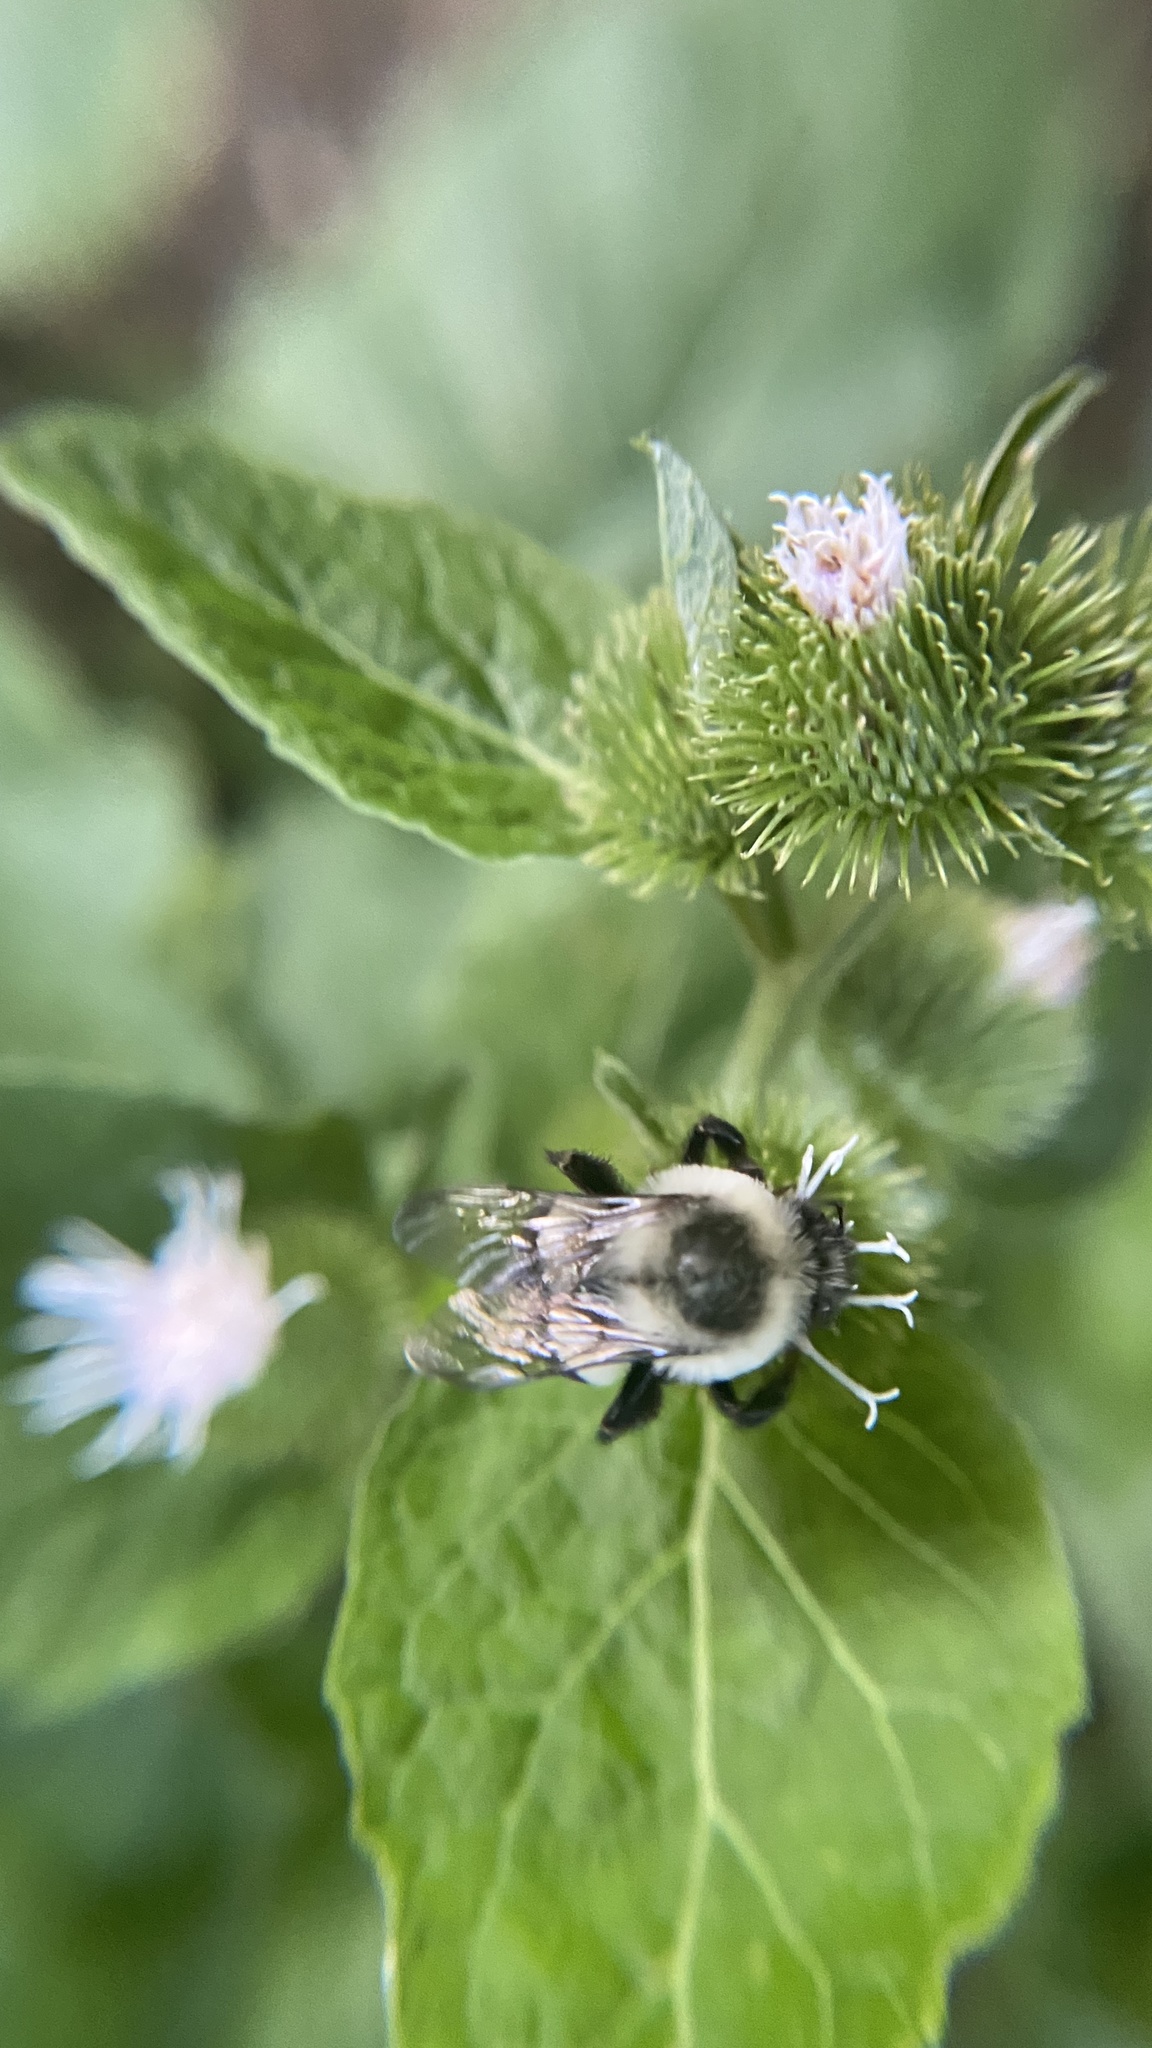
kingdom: Animalia
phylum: Arthropoda
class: Insecta
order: Hymenoptera
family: Apidae
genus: Bombus
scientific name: Bombus impatiens
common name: Common eastern bumble bee
